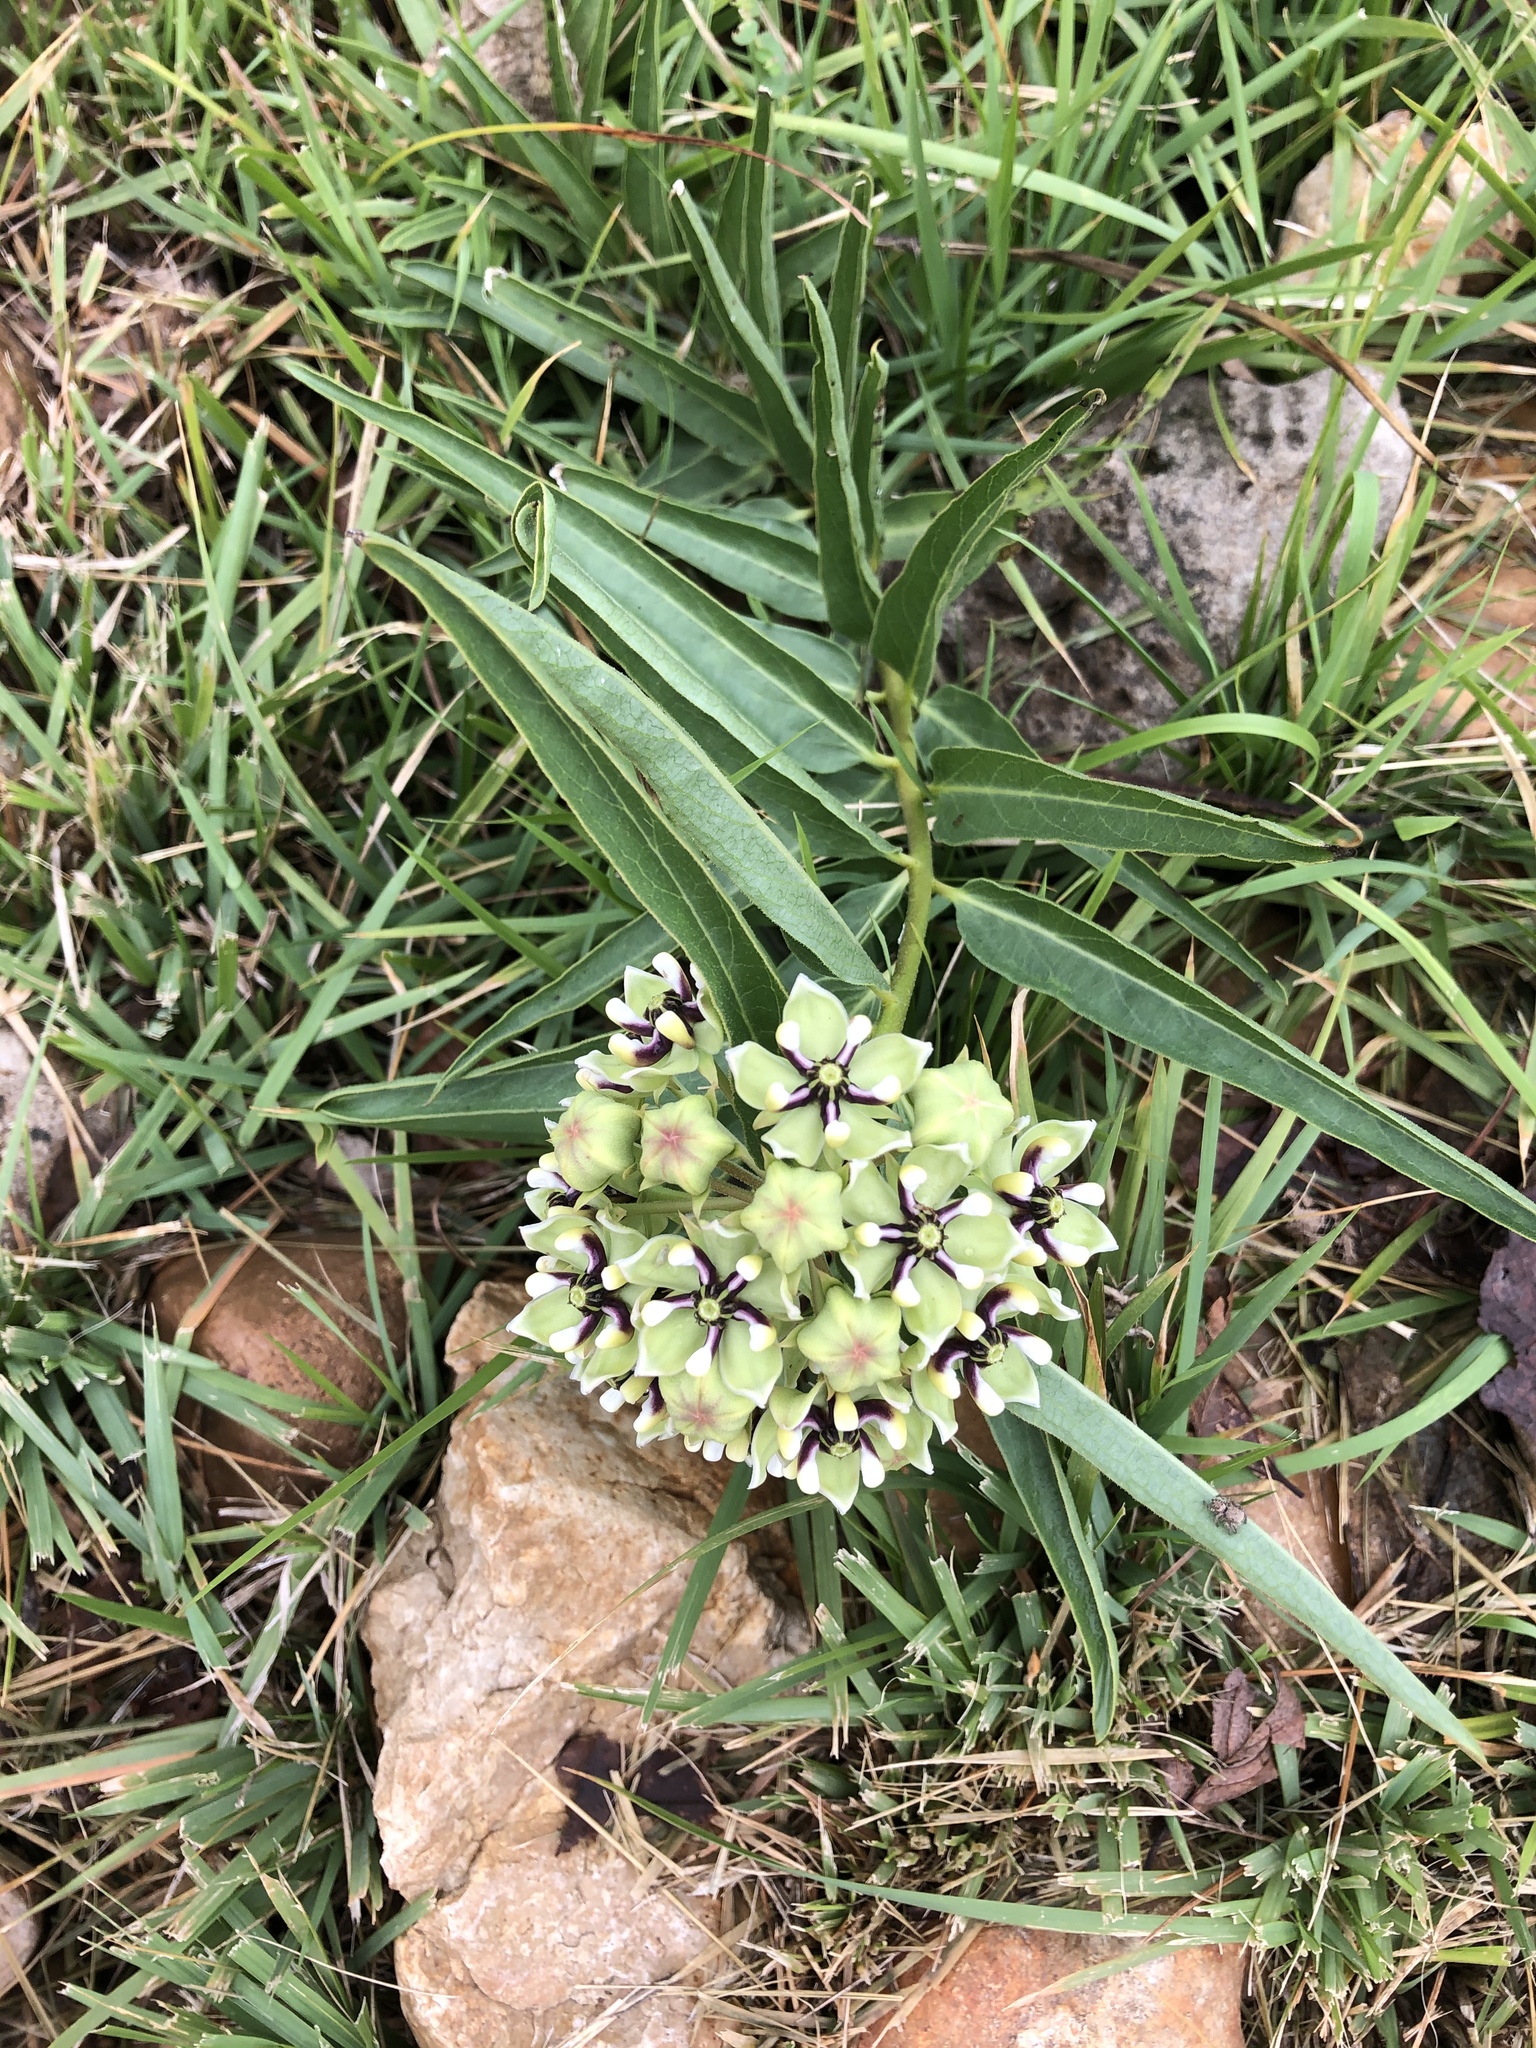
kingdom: Plantae
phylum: Tracheophyta
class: Magnoliopsida
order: Gentianales
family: Apocynaceae
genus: Asclepias
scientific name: Asclepias asperula
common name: Antelope horns
